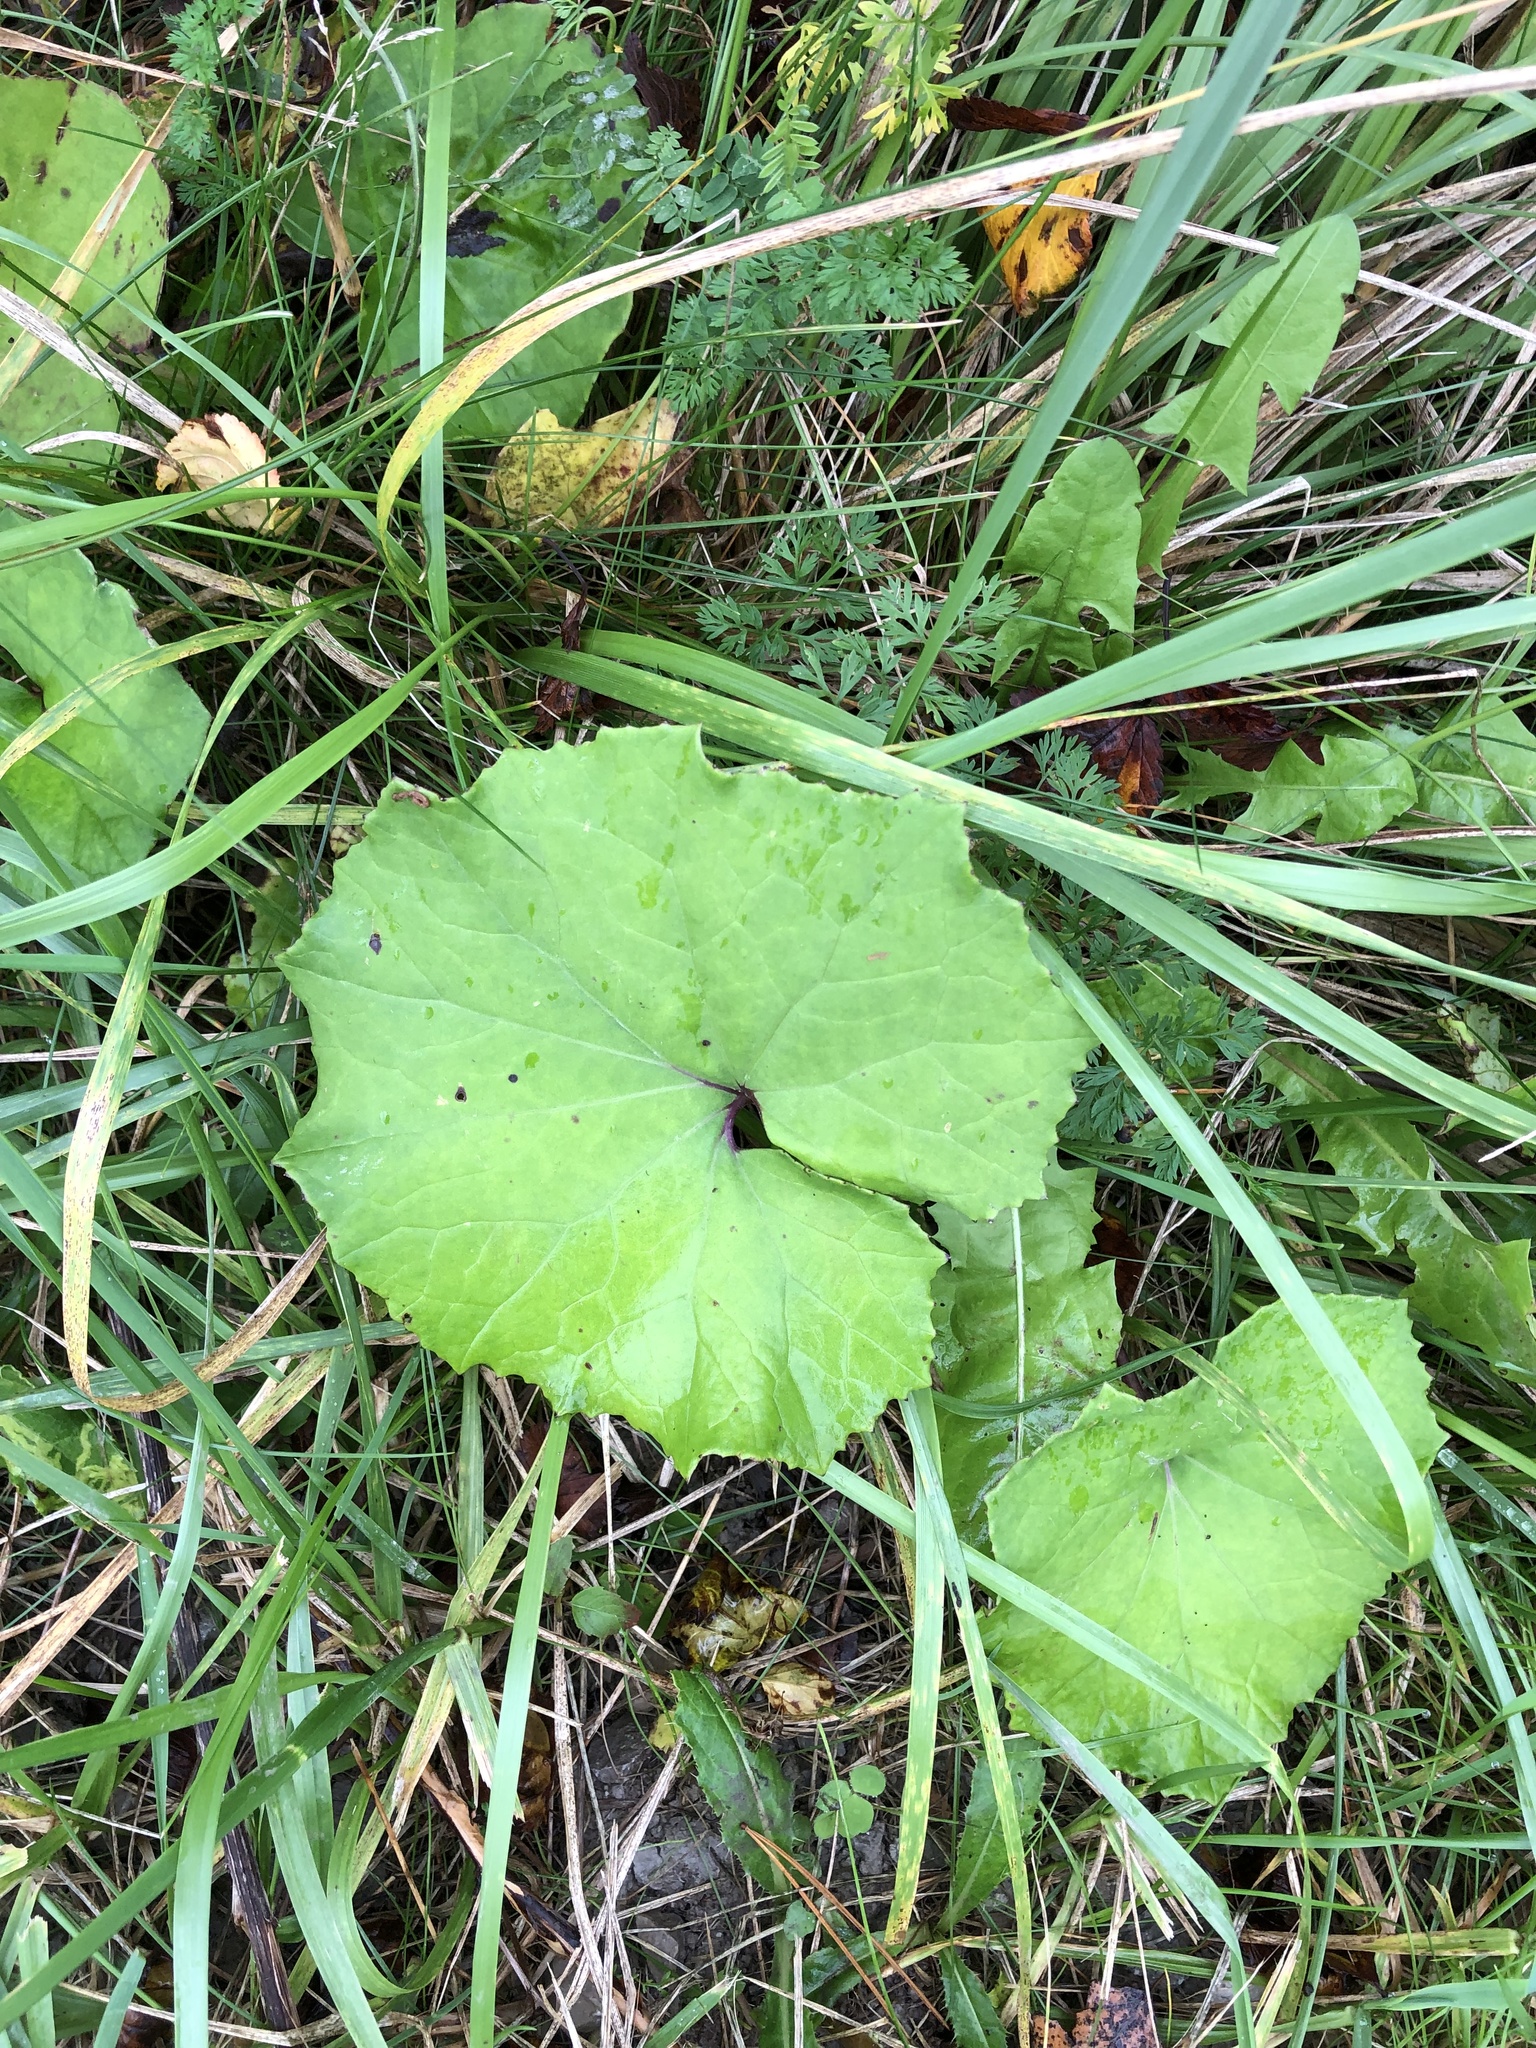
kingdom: Plantae
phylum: Tracheophyta
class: Magnoliopsida
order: Asterales
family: Asteraceae
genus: Tussilago
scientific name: Tussilago farfara
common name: Coltsfoot
